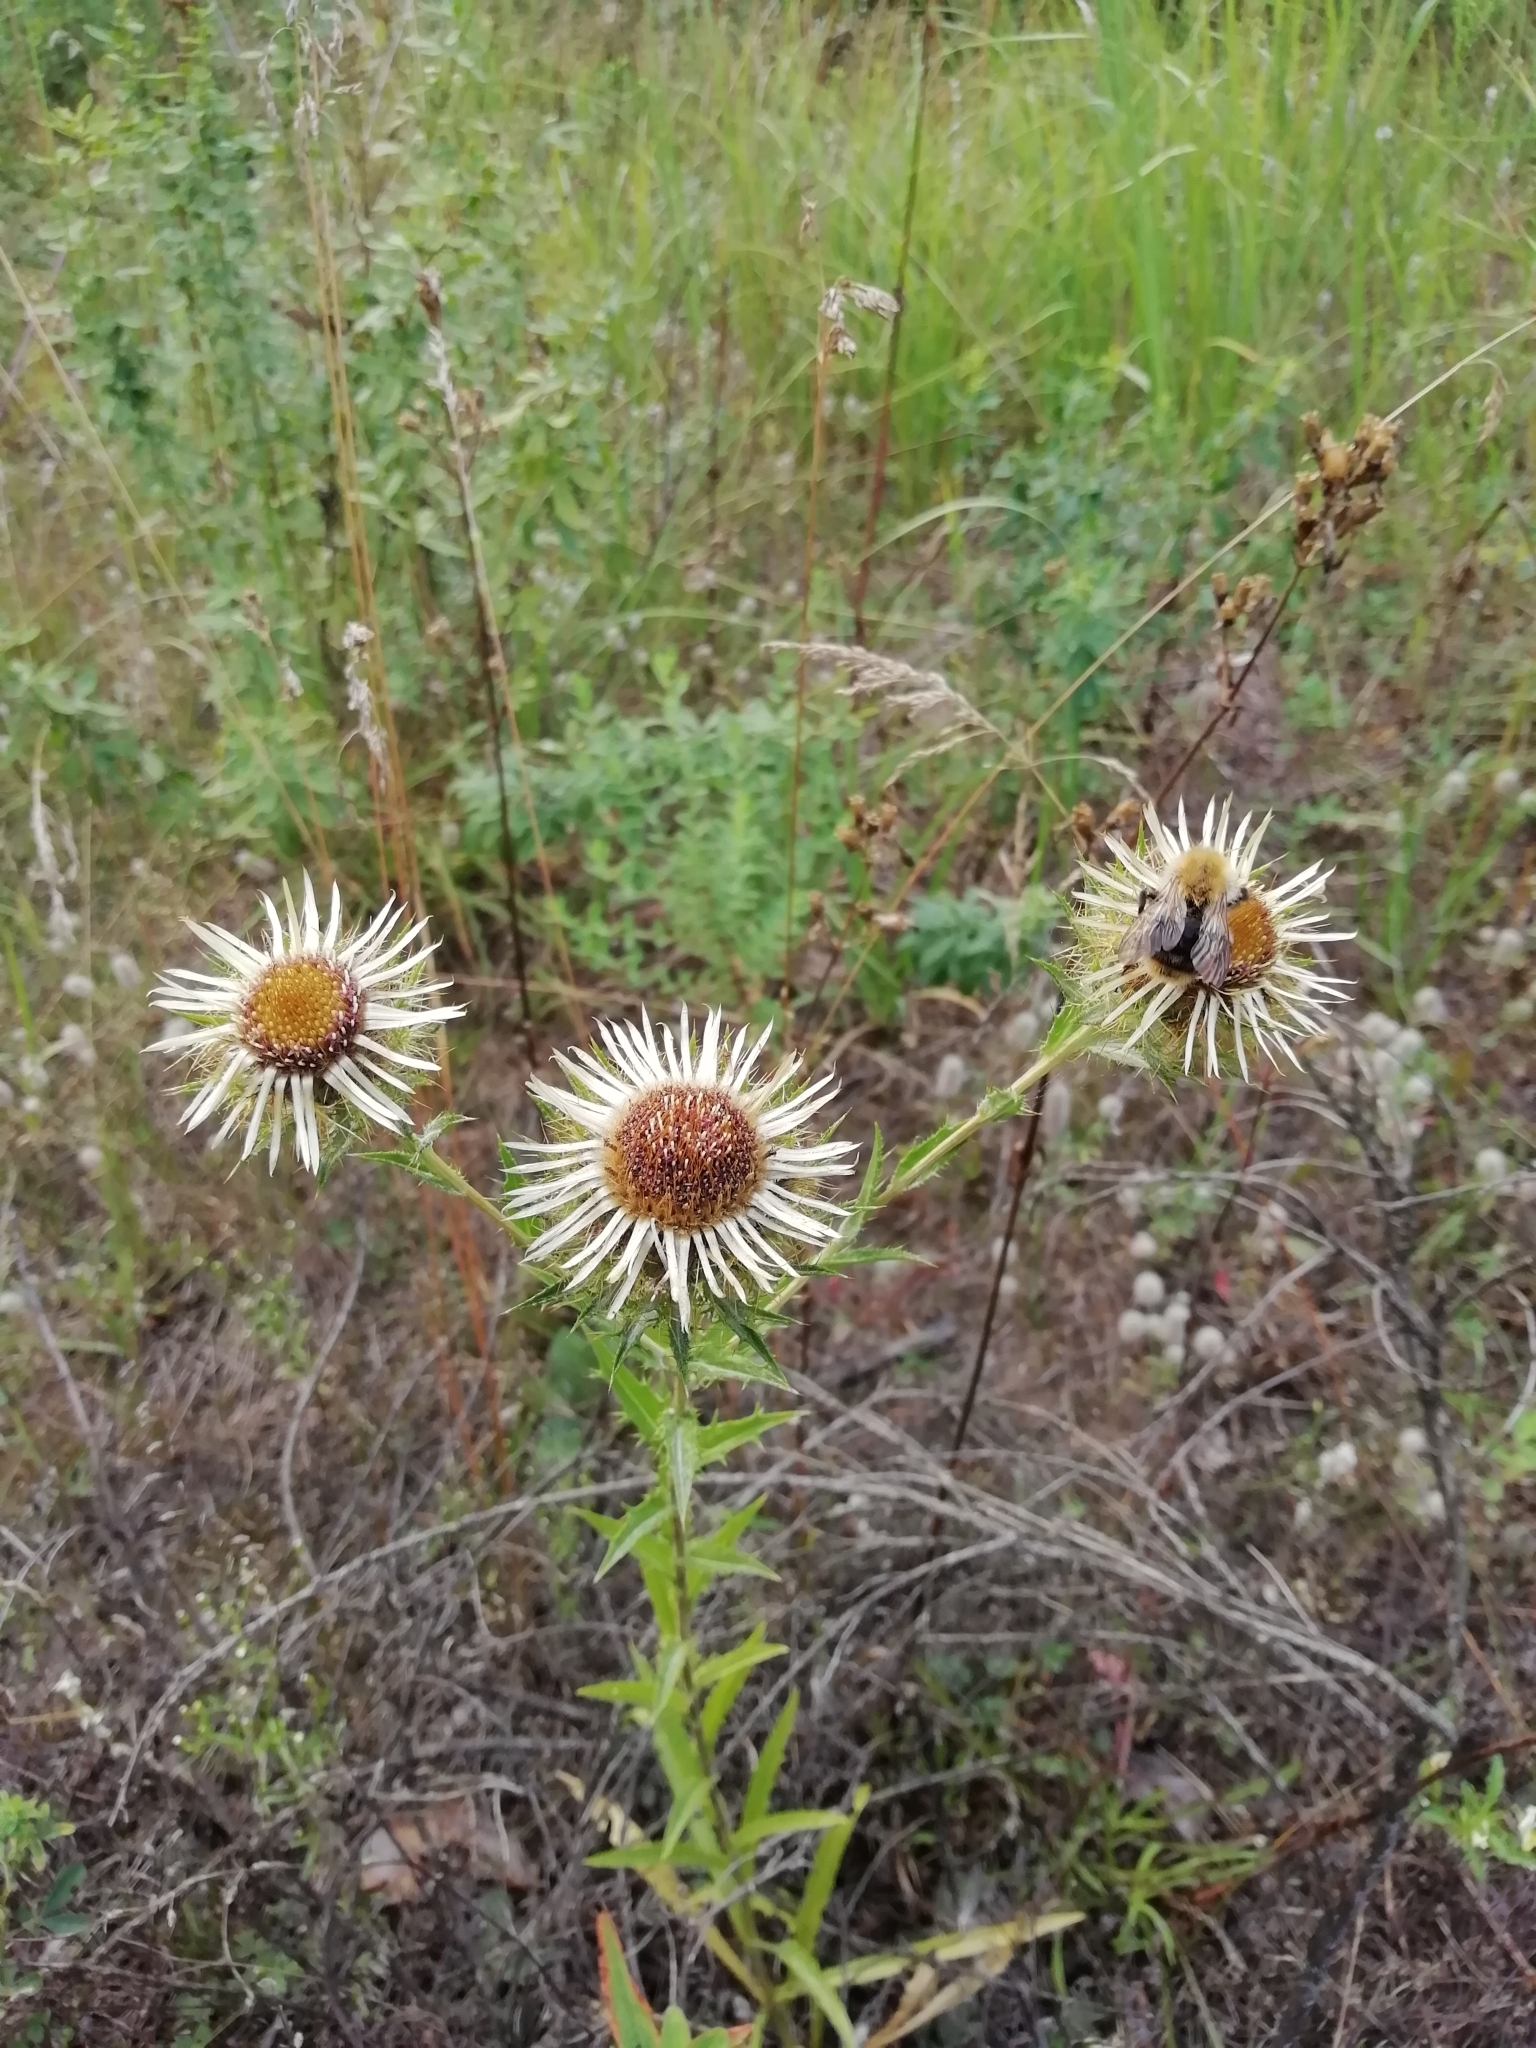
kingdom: Plantae
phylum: Tracheophyta
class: Magnoliopsida
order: Asterales
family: Asteraceae
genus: Carlina
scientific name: Carlina biebersteinii
